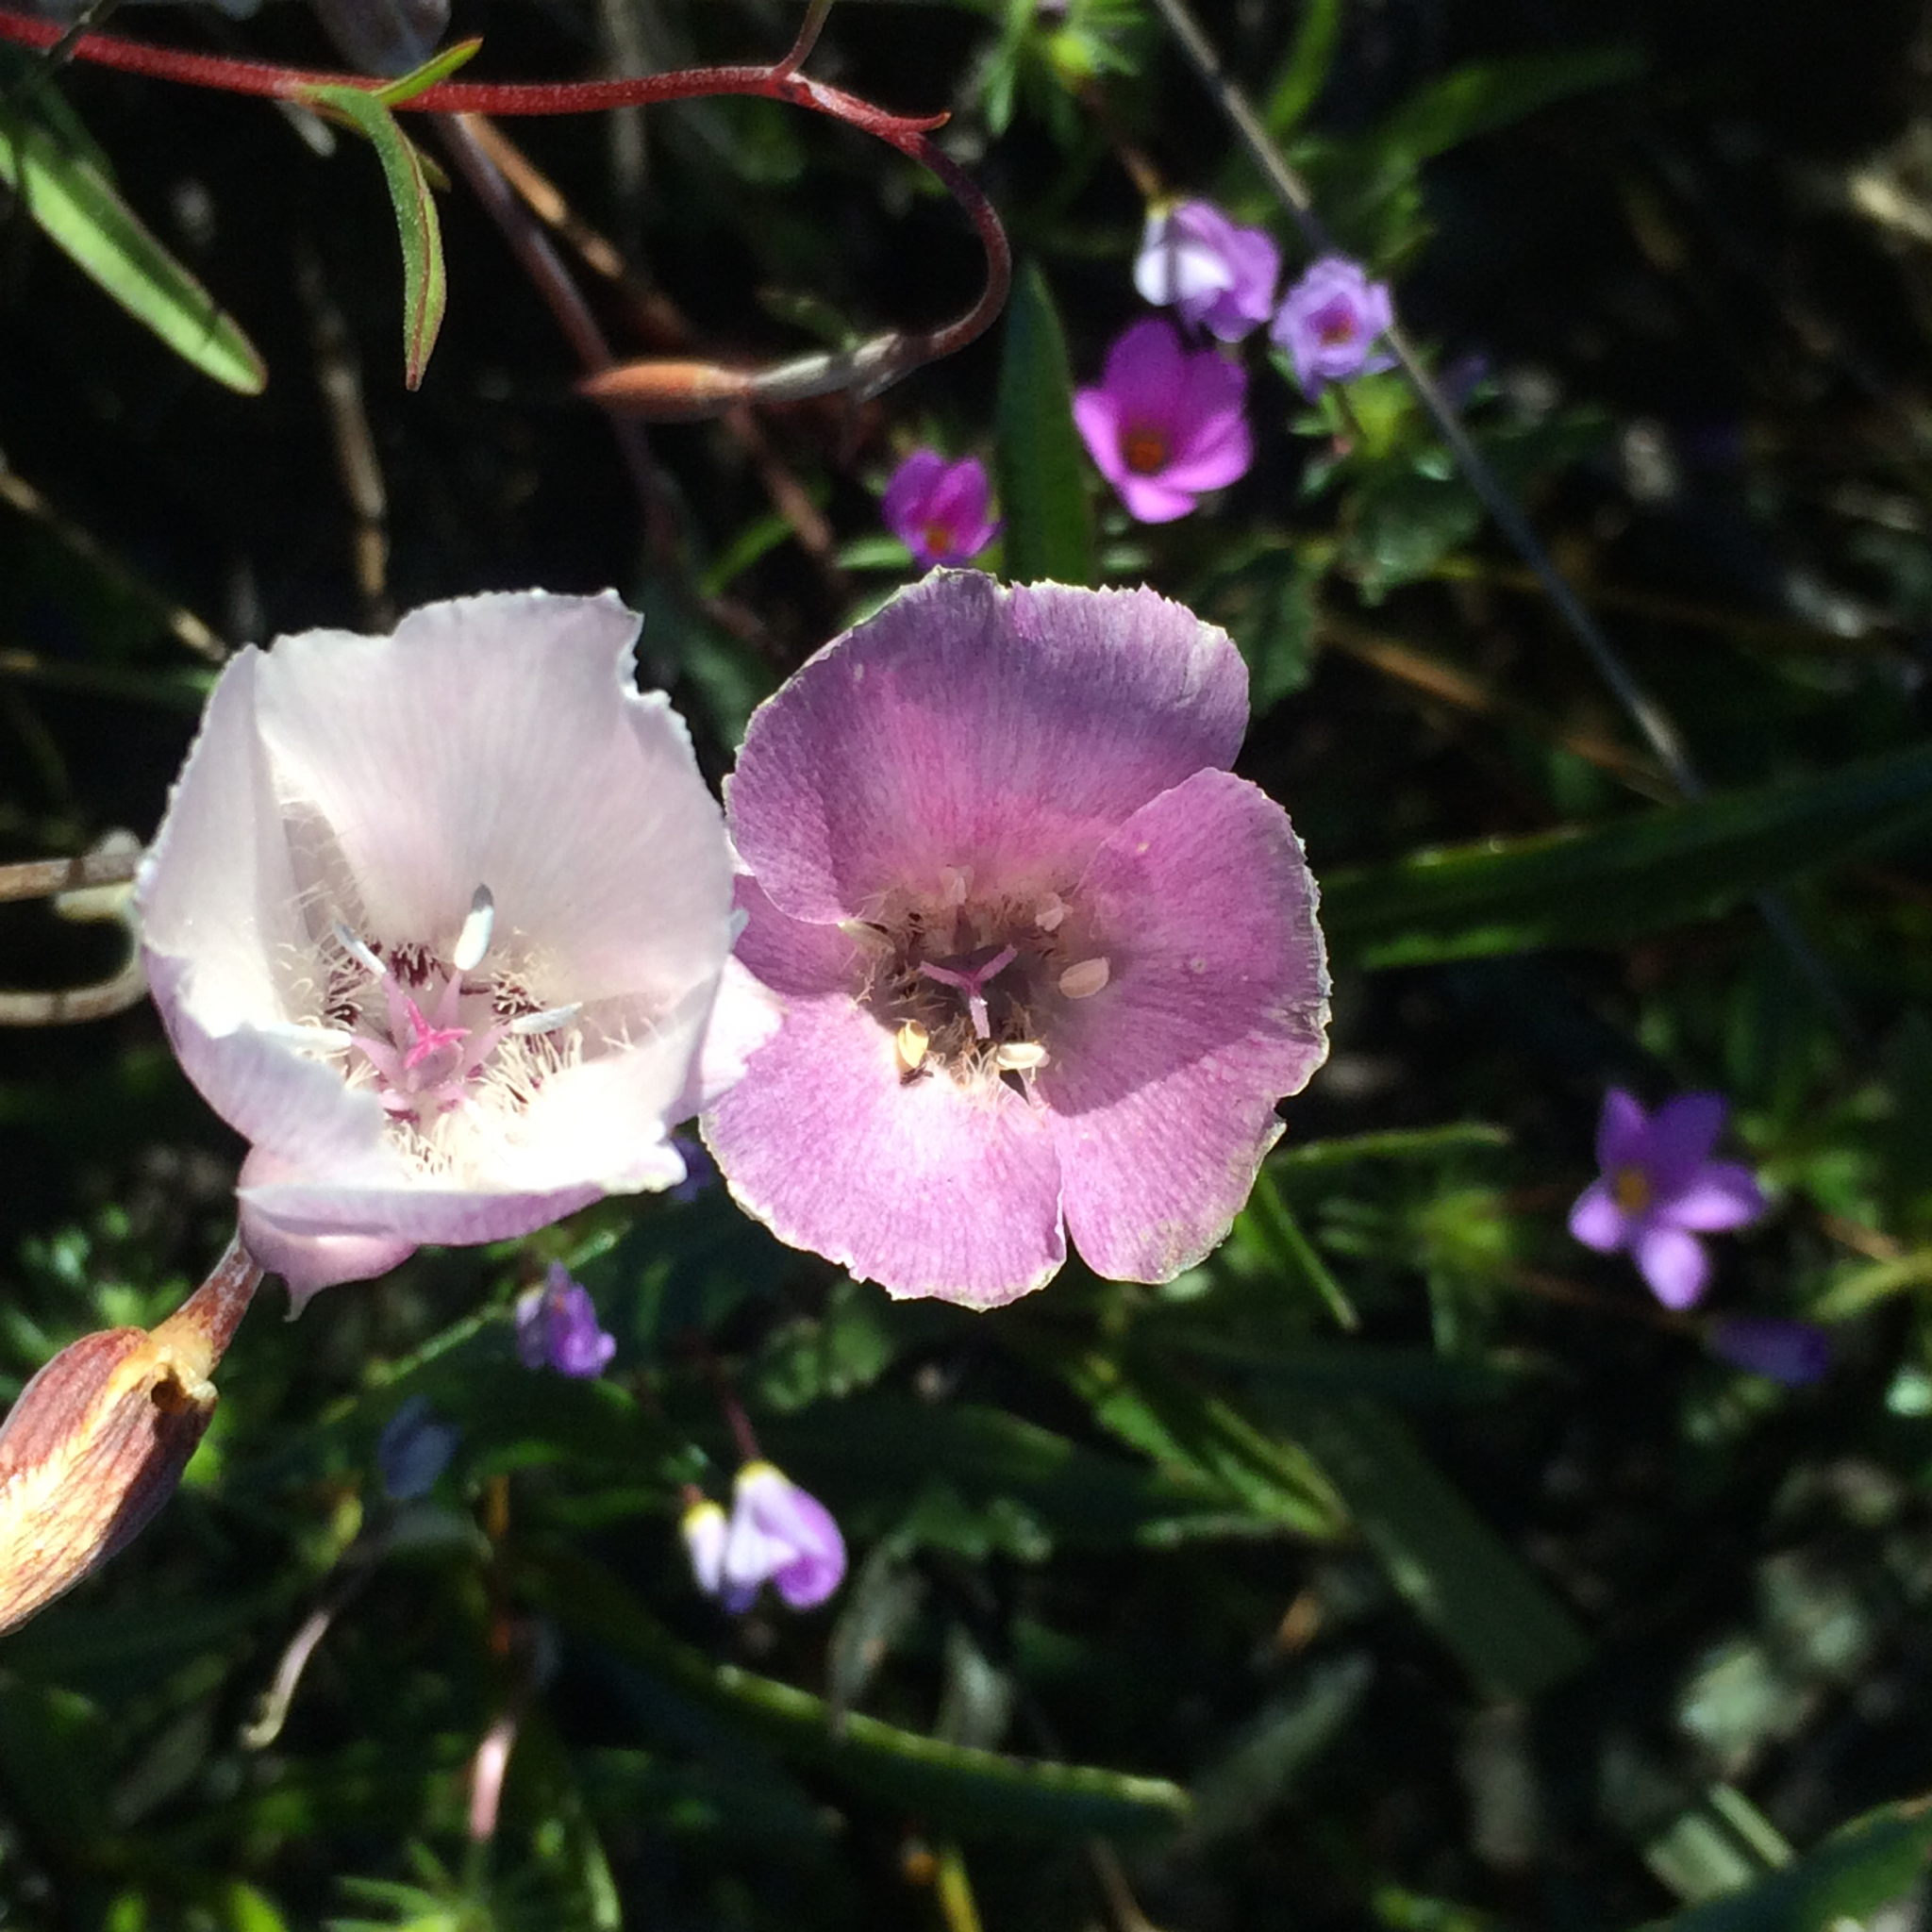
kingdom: Plantae
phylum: Tracheophyta
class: Liliopsida
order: Liliales
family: Liliaceae
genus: Calochortus
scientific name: Calochortus umbellatus
